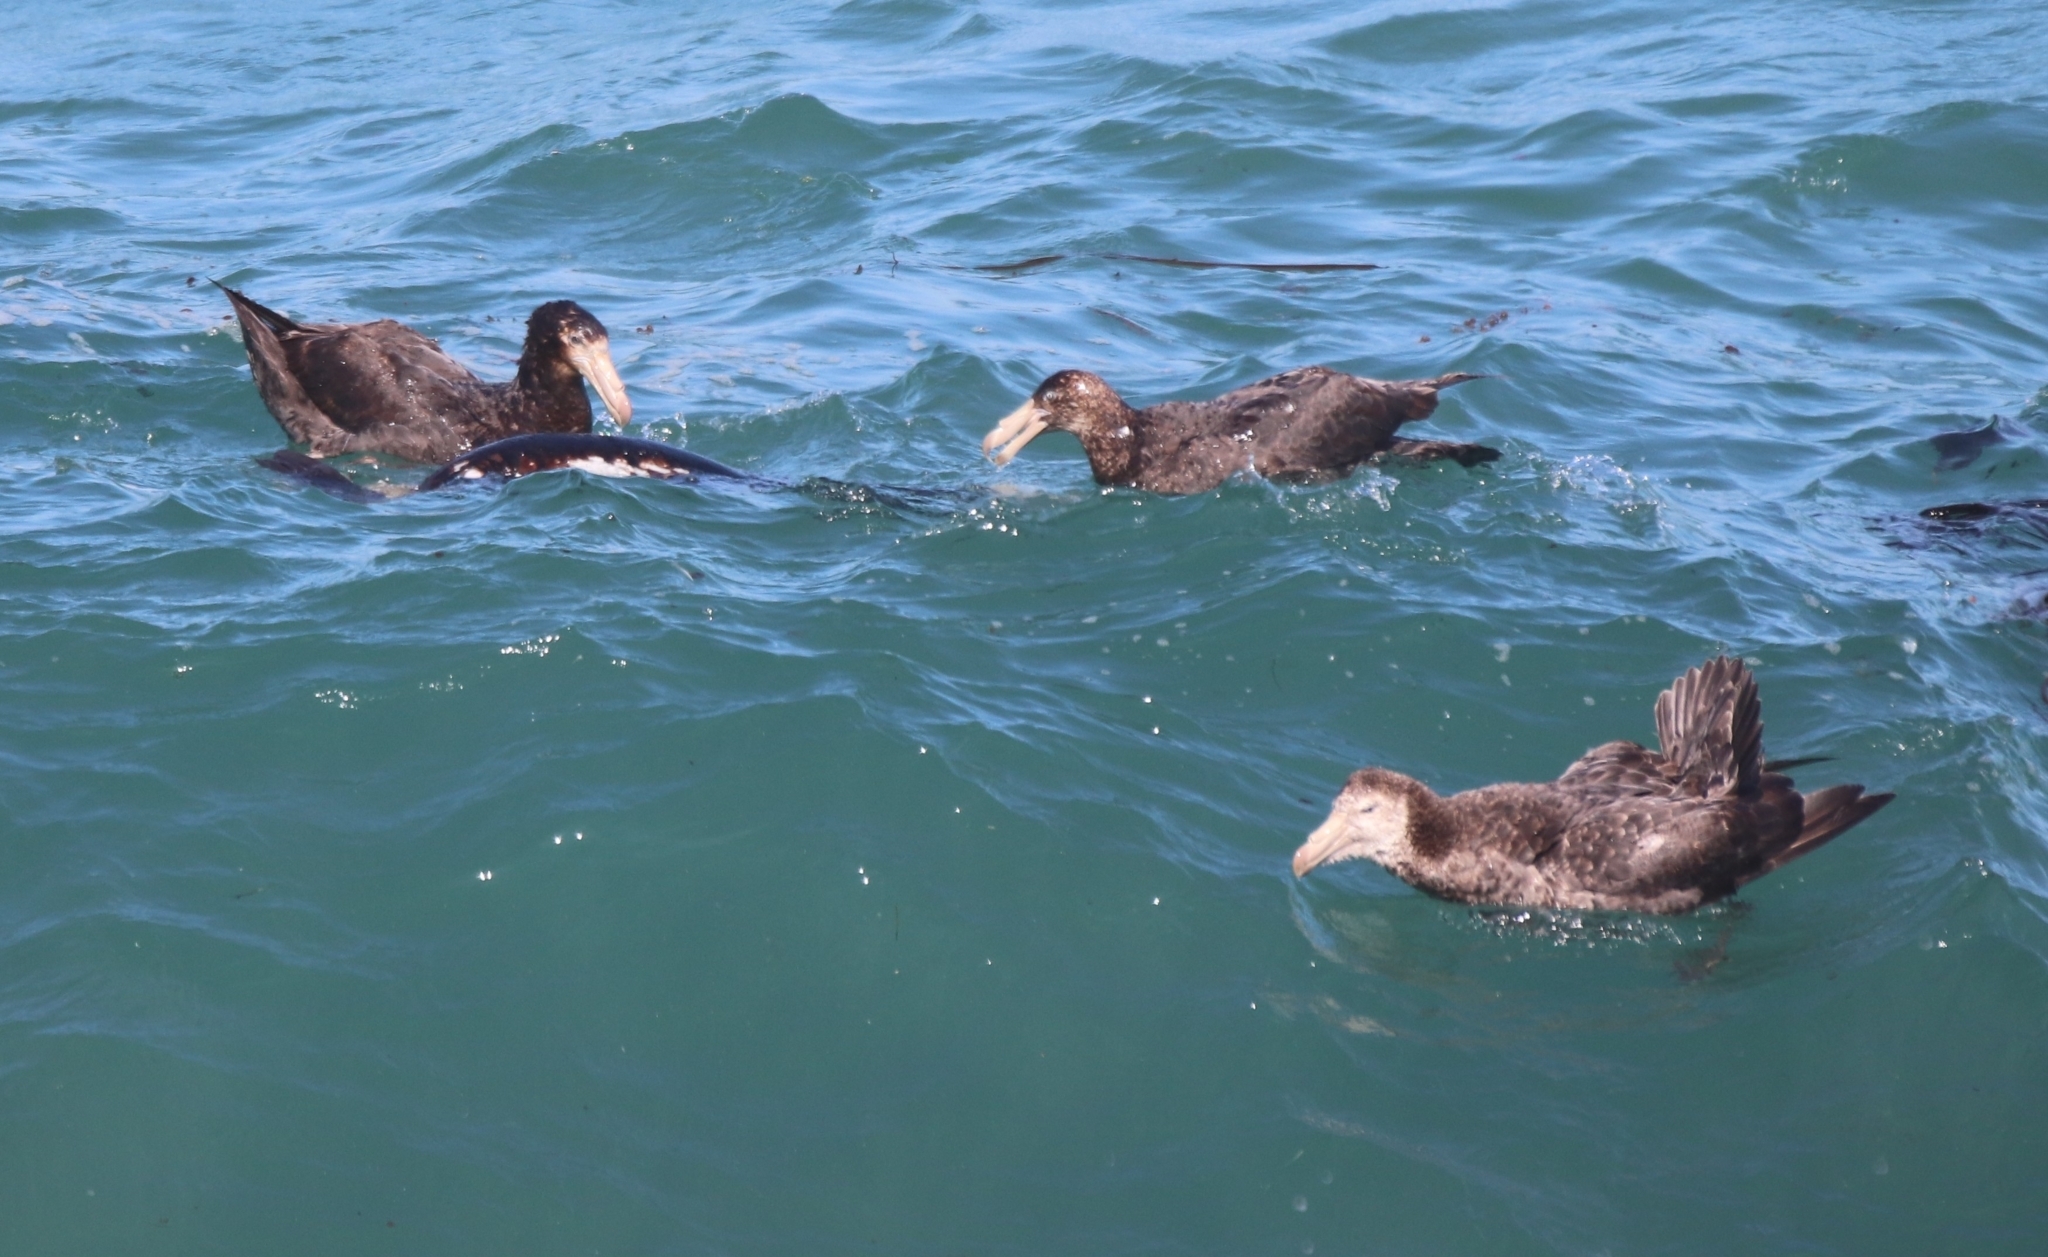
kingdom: Animalia
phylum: Chordata
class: Aves
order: Procellariiformes
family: Procellariidae
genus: Macronectes
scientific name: Macronectes halli
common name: Northern giant petrel
